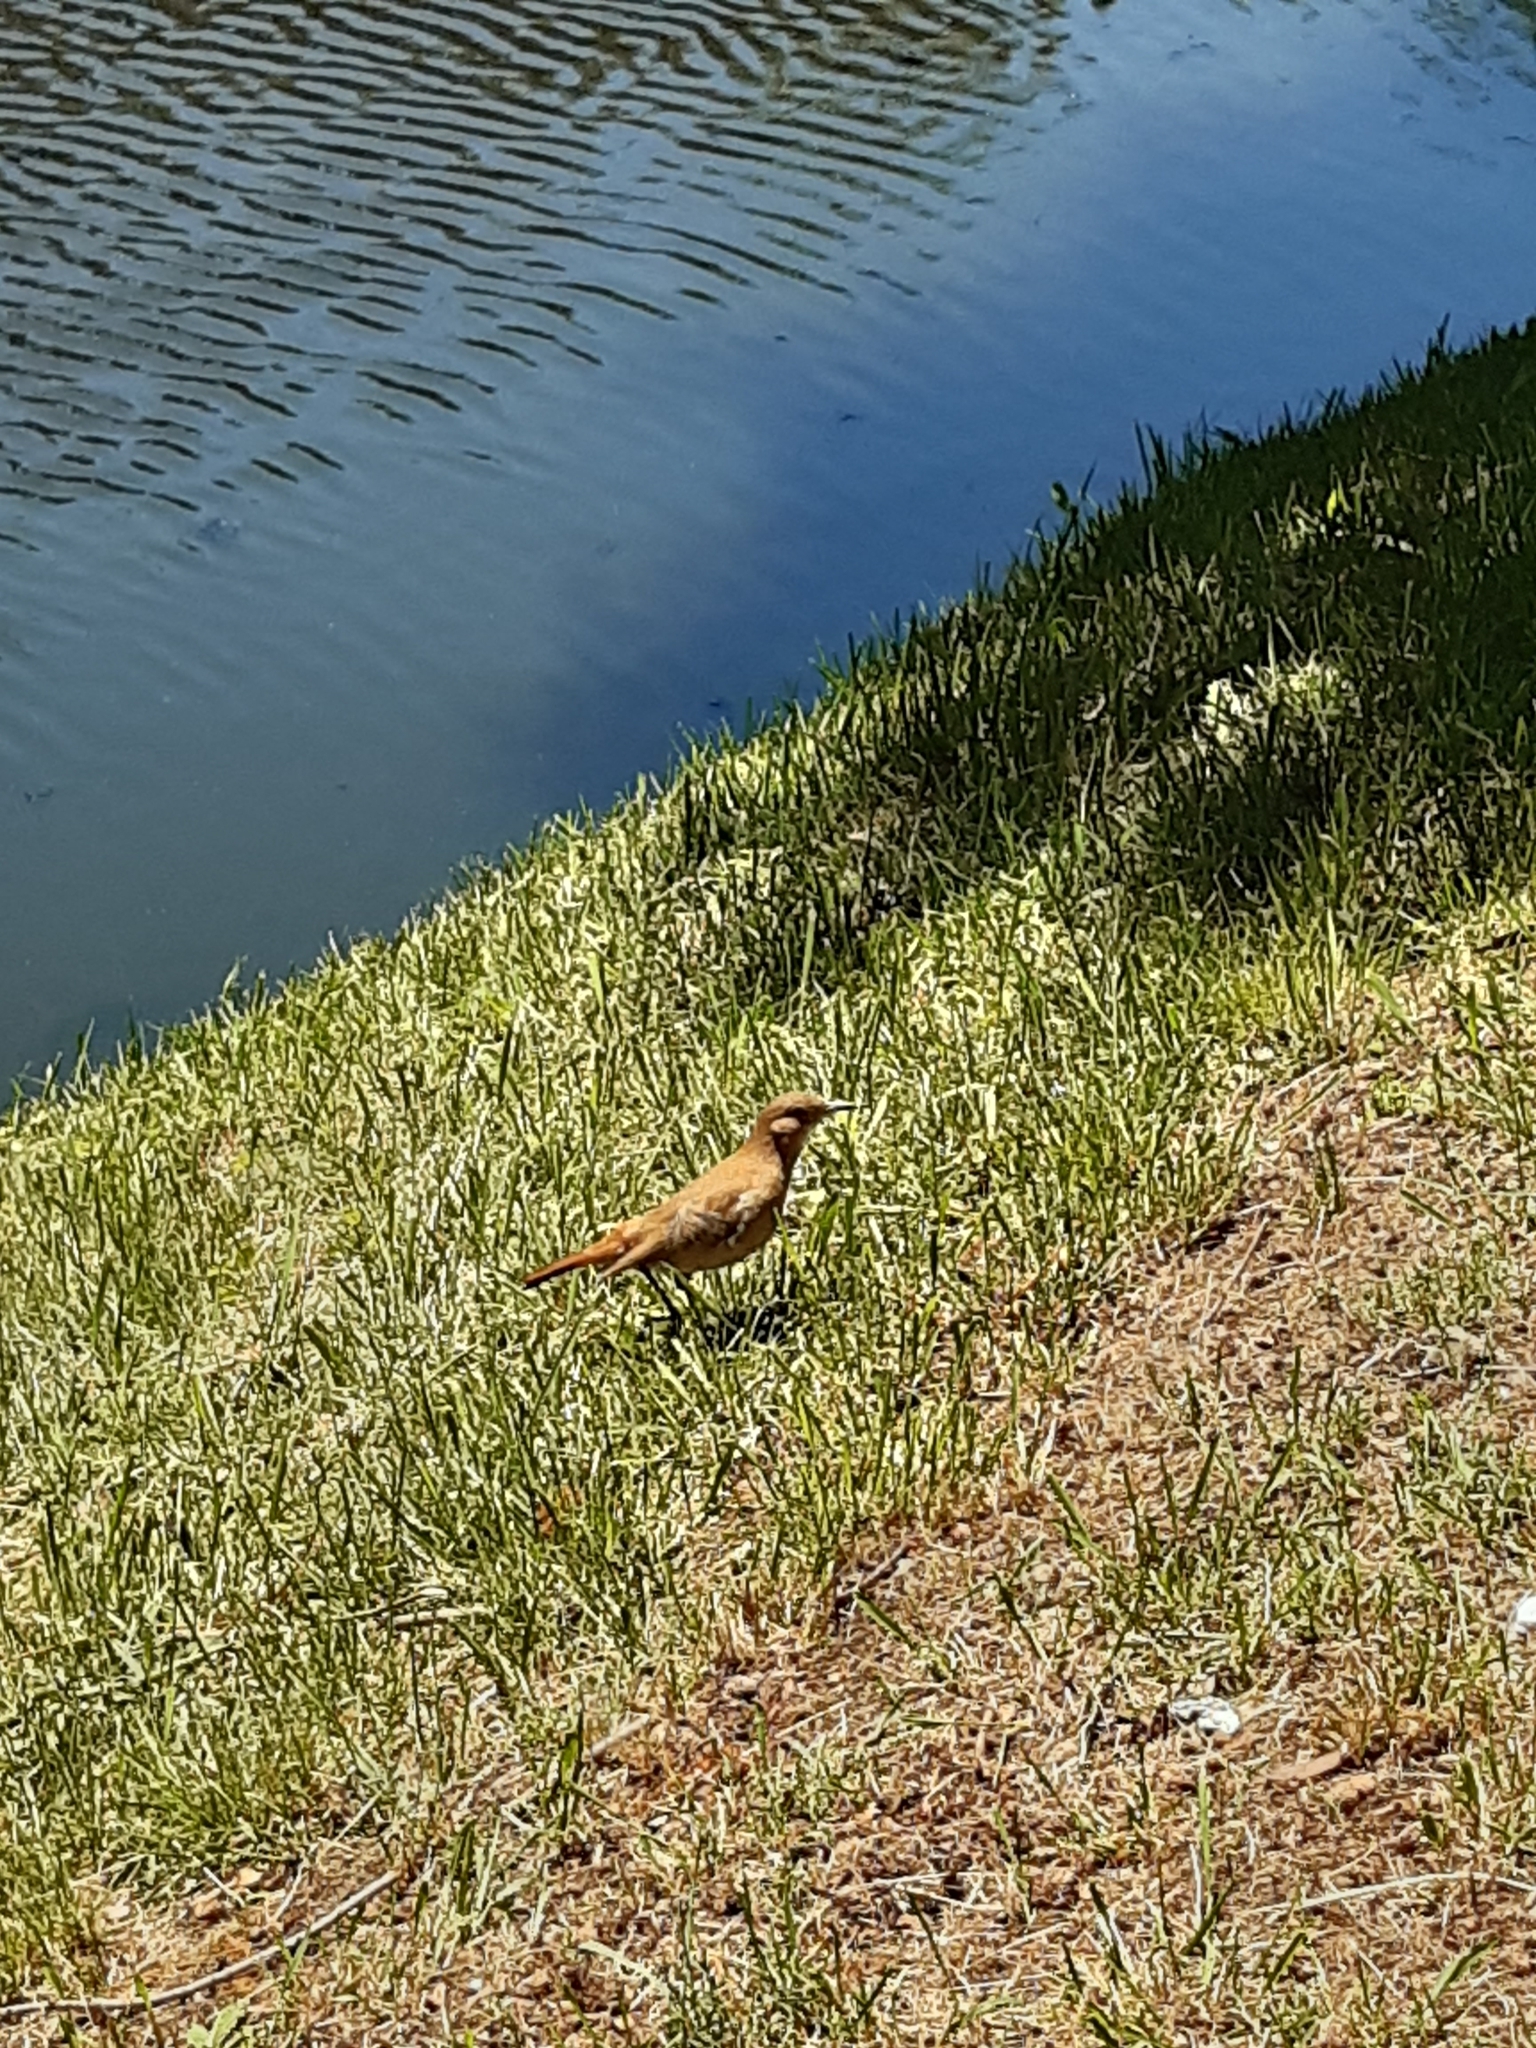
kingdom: Animalia
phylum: Chordata
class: Aves
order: Passeriformes
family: Furnariidae
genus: Furnarius
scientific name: Furnarius rufus
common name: Rufous hornero
